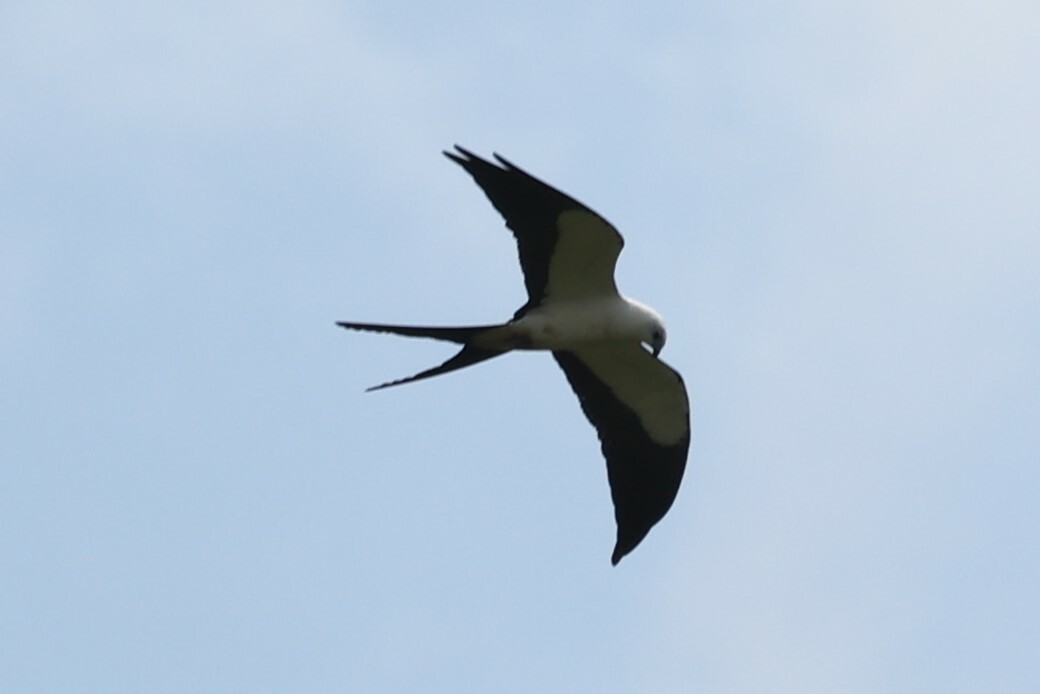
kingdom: Animalia
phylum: Chordata
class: Aves
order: Accipitriformes
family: Accipitridae
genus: Elanoides
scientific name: Elanoides forficatus
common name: Swallow-tailed kite
